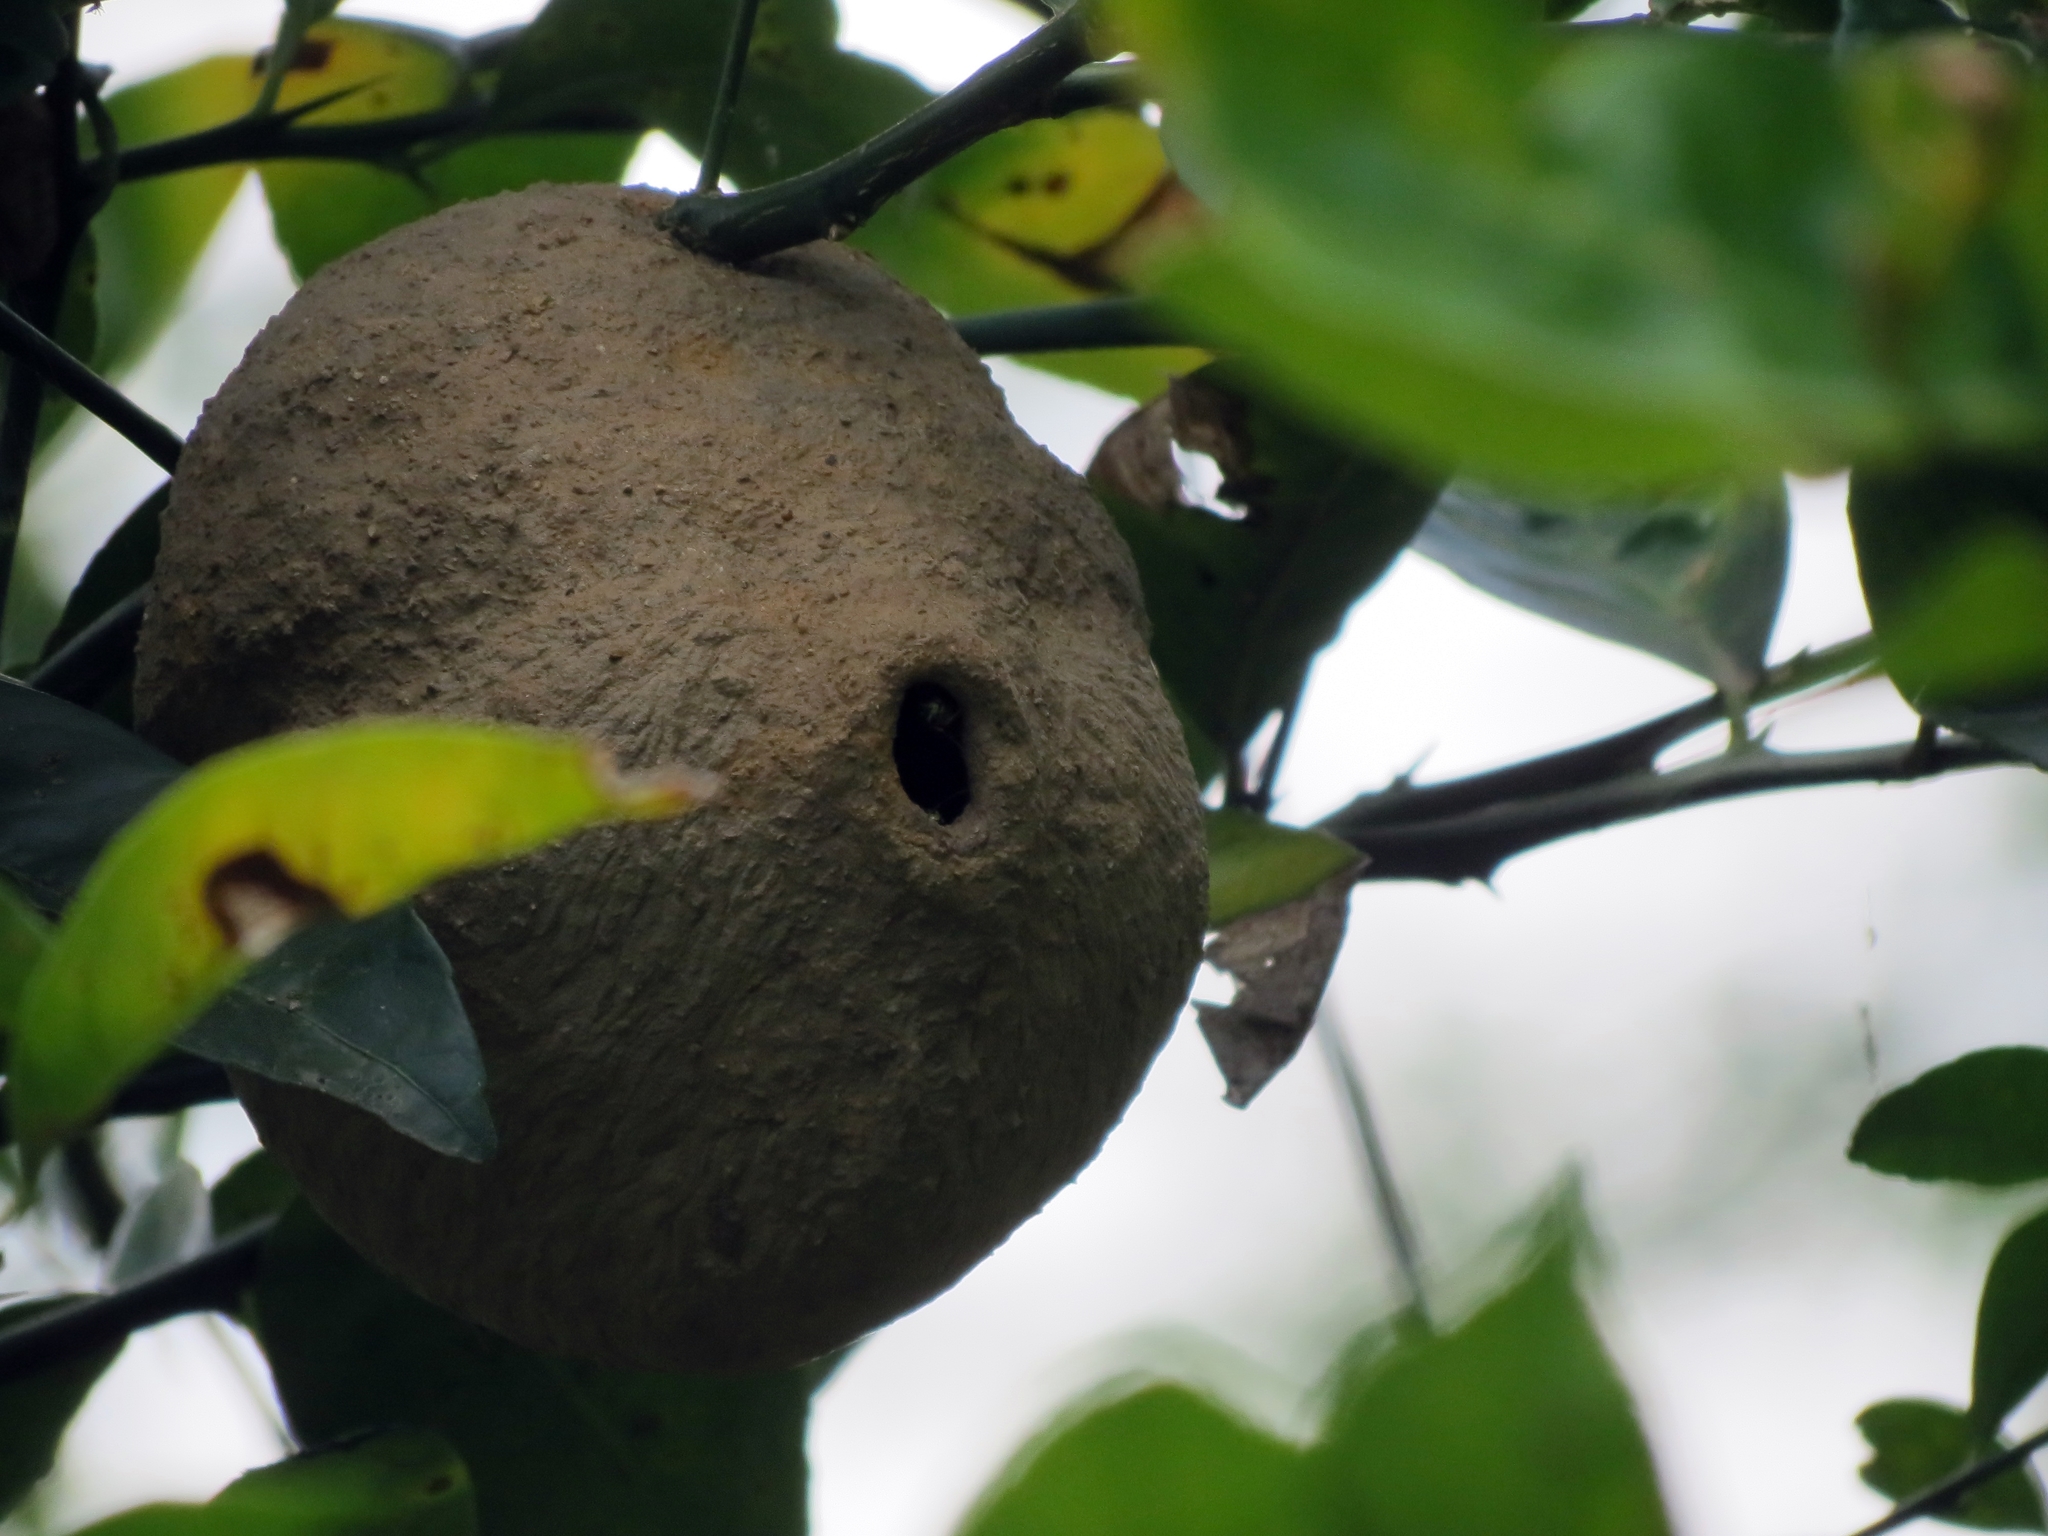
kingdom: Animalia
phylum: Arthropoda
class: Insecta
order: Hymenoptera
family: Eumenidae
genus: Polybia
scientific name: Polybia emaciata
